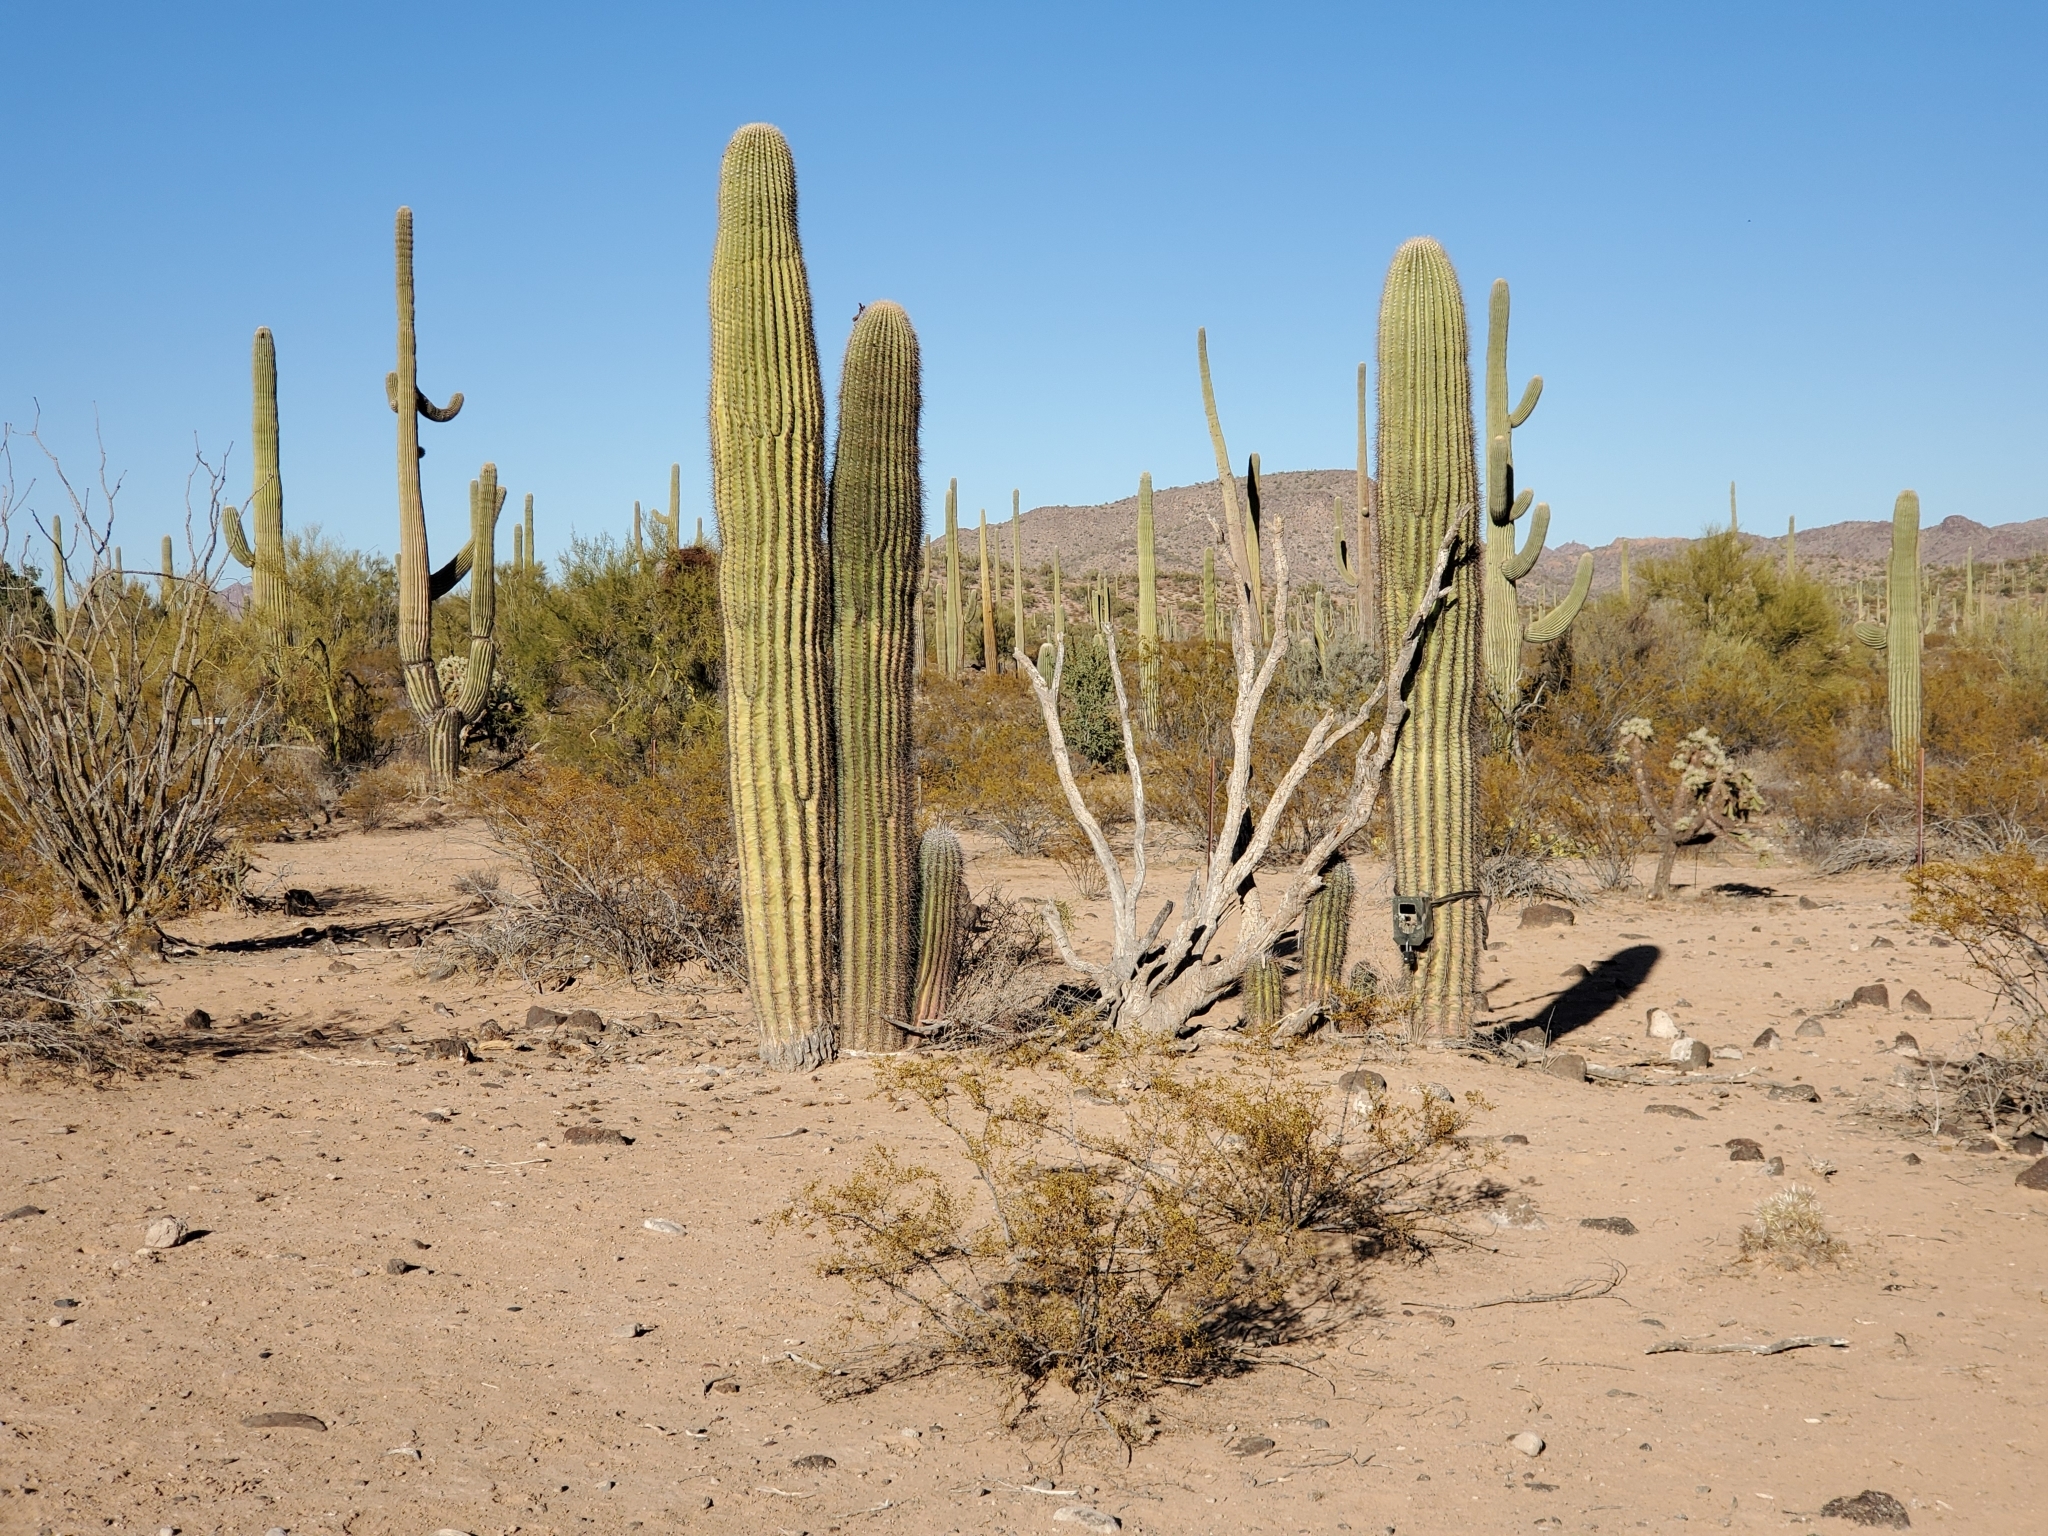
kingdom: Plantae
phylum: Tracheophyta
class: Magnoliopsida
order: Caryophyllales
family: Cactaceae
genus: Carnegiea
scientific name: Carnegiea gigantea
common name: Saguaro
